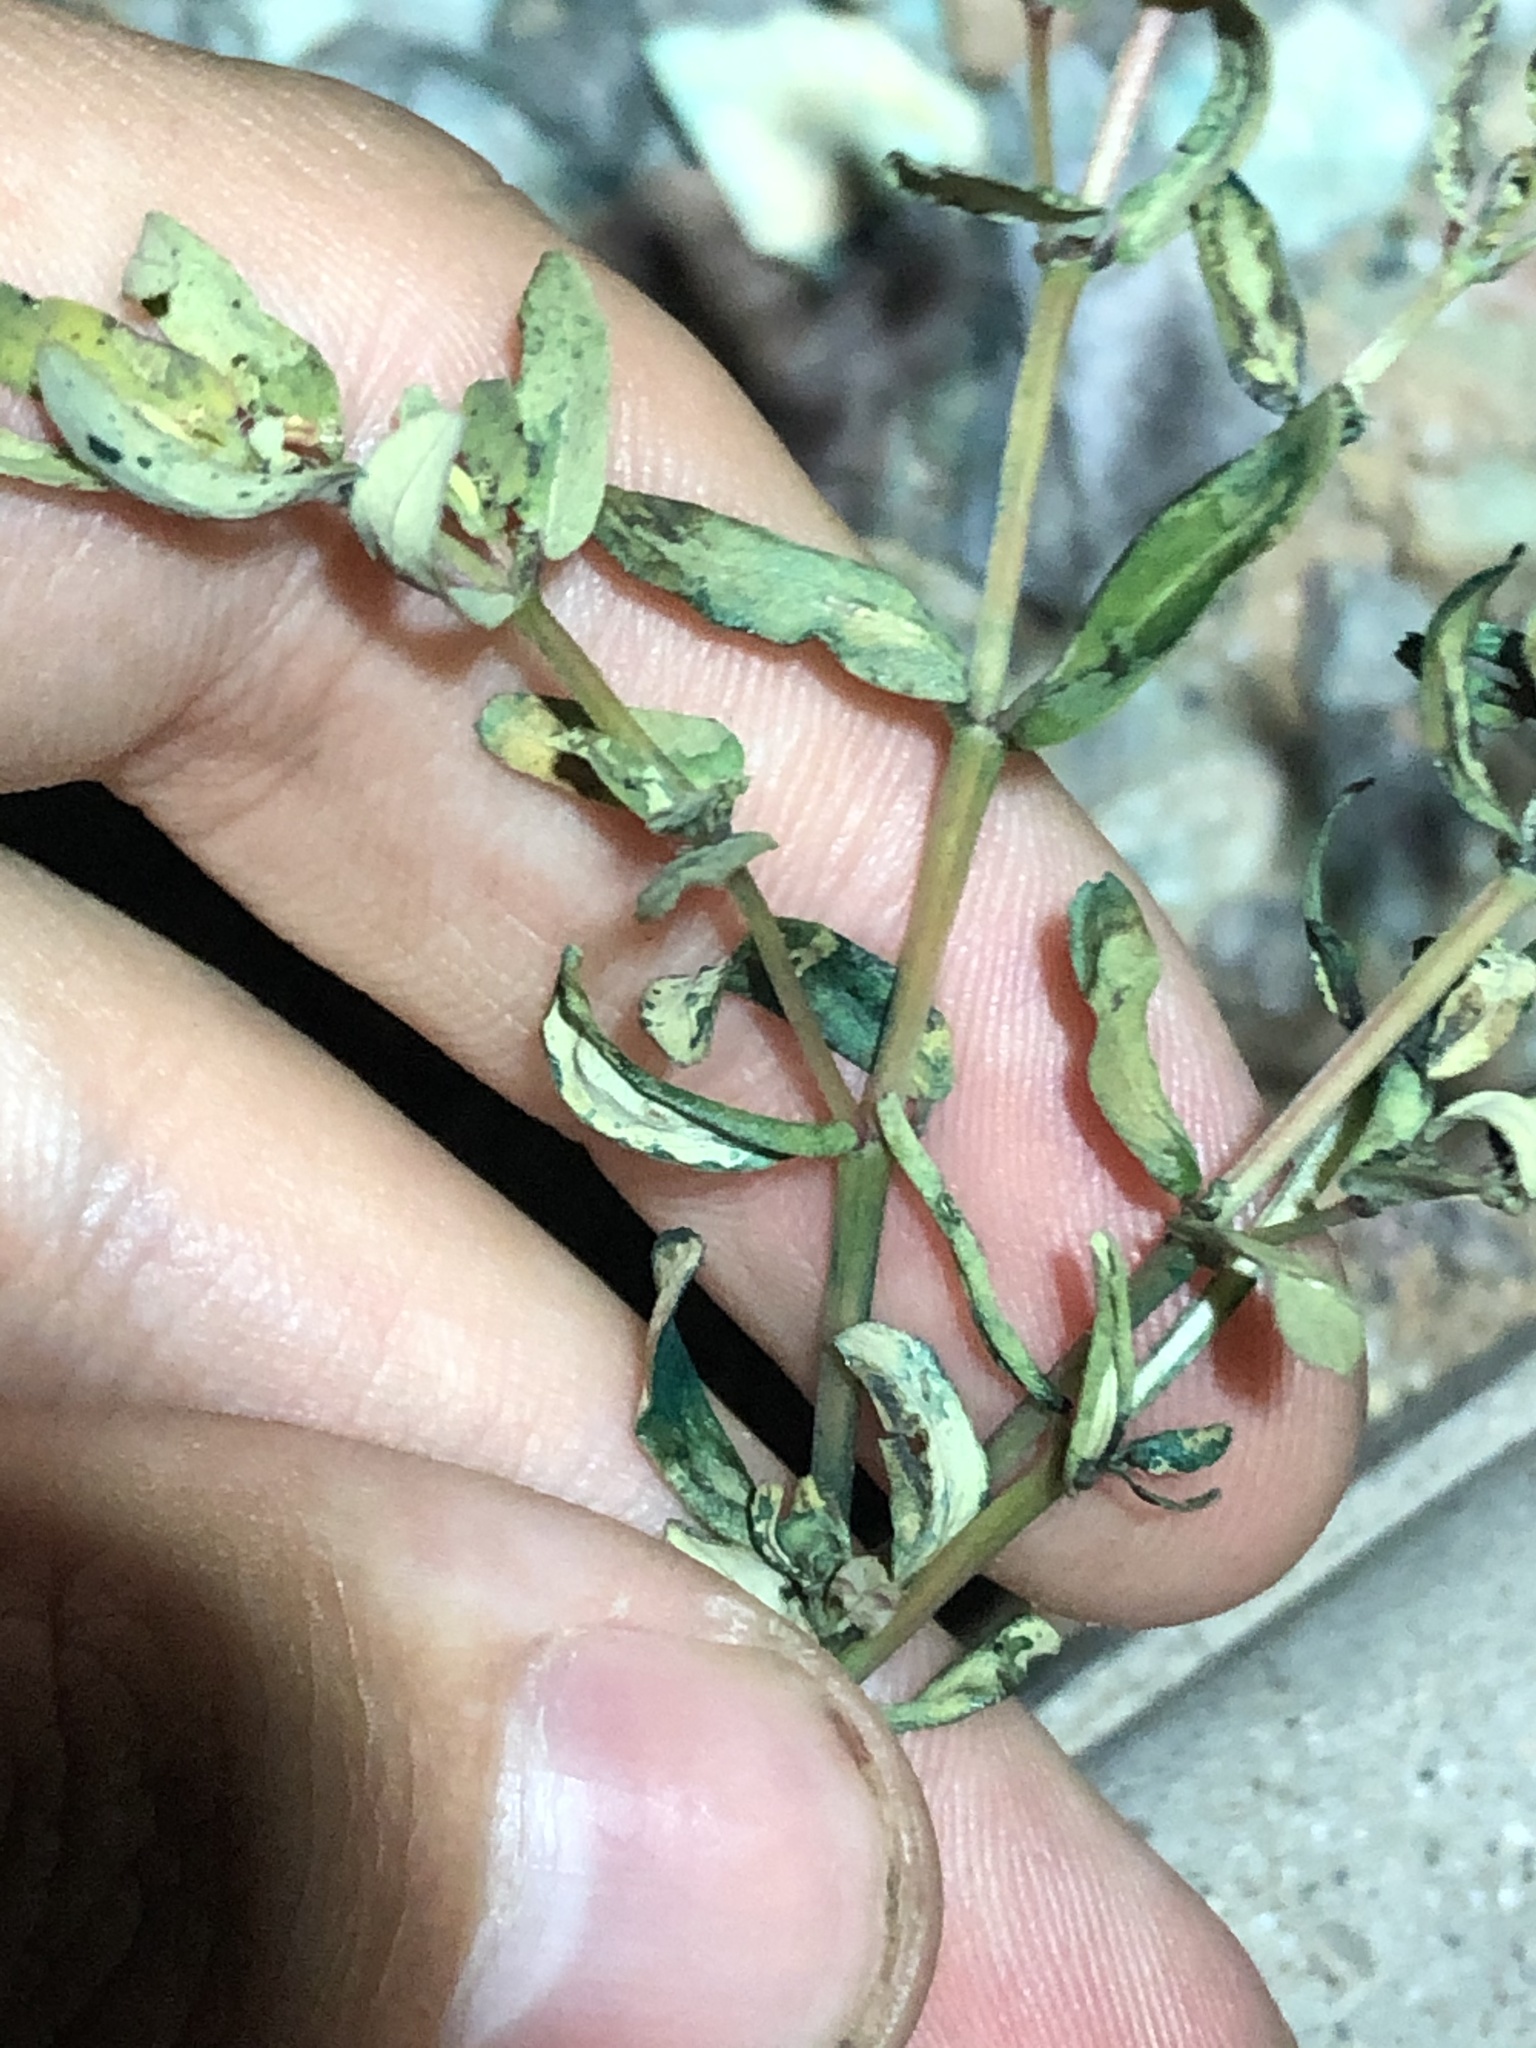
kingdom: Plantae
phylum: Tracheophyta
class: Magnoliopsida
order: Malpighiales
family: Euphorbiaceae
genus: Euphorbia
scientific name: Euphorbia serpillifolia
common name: Thyme-leaf spurge
